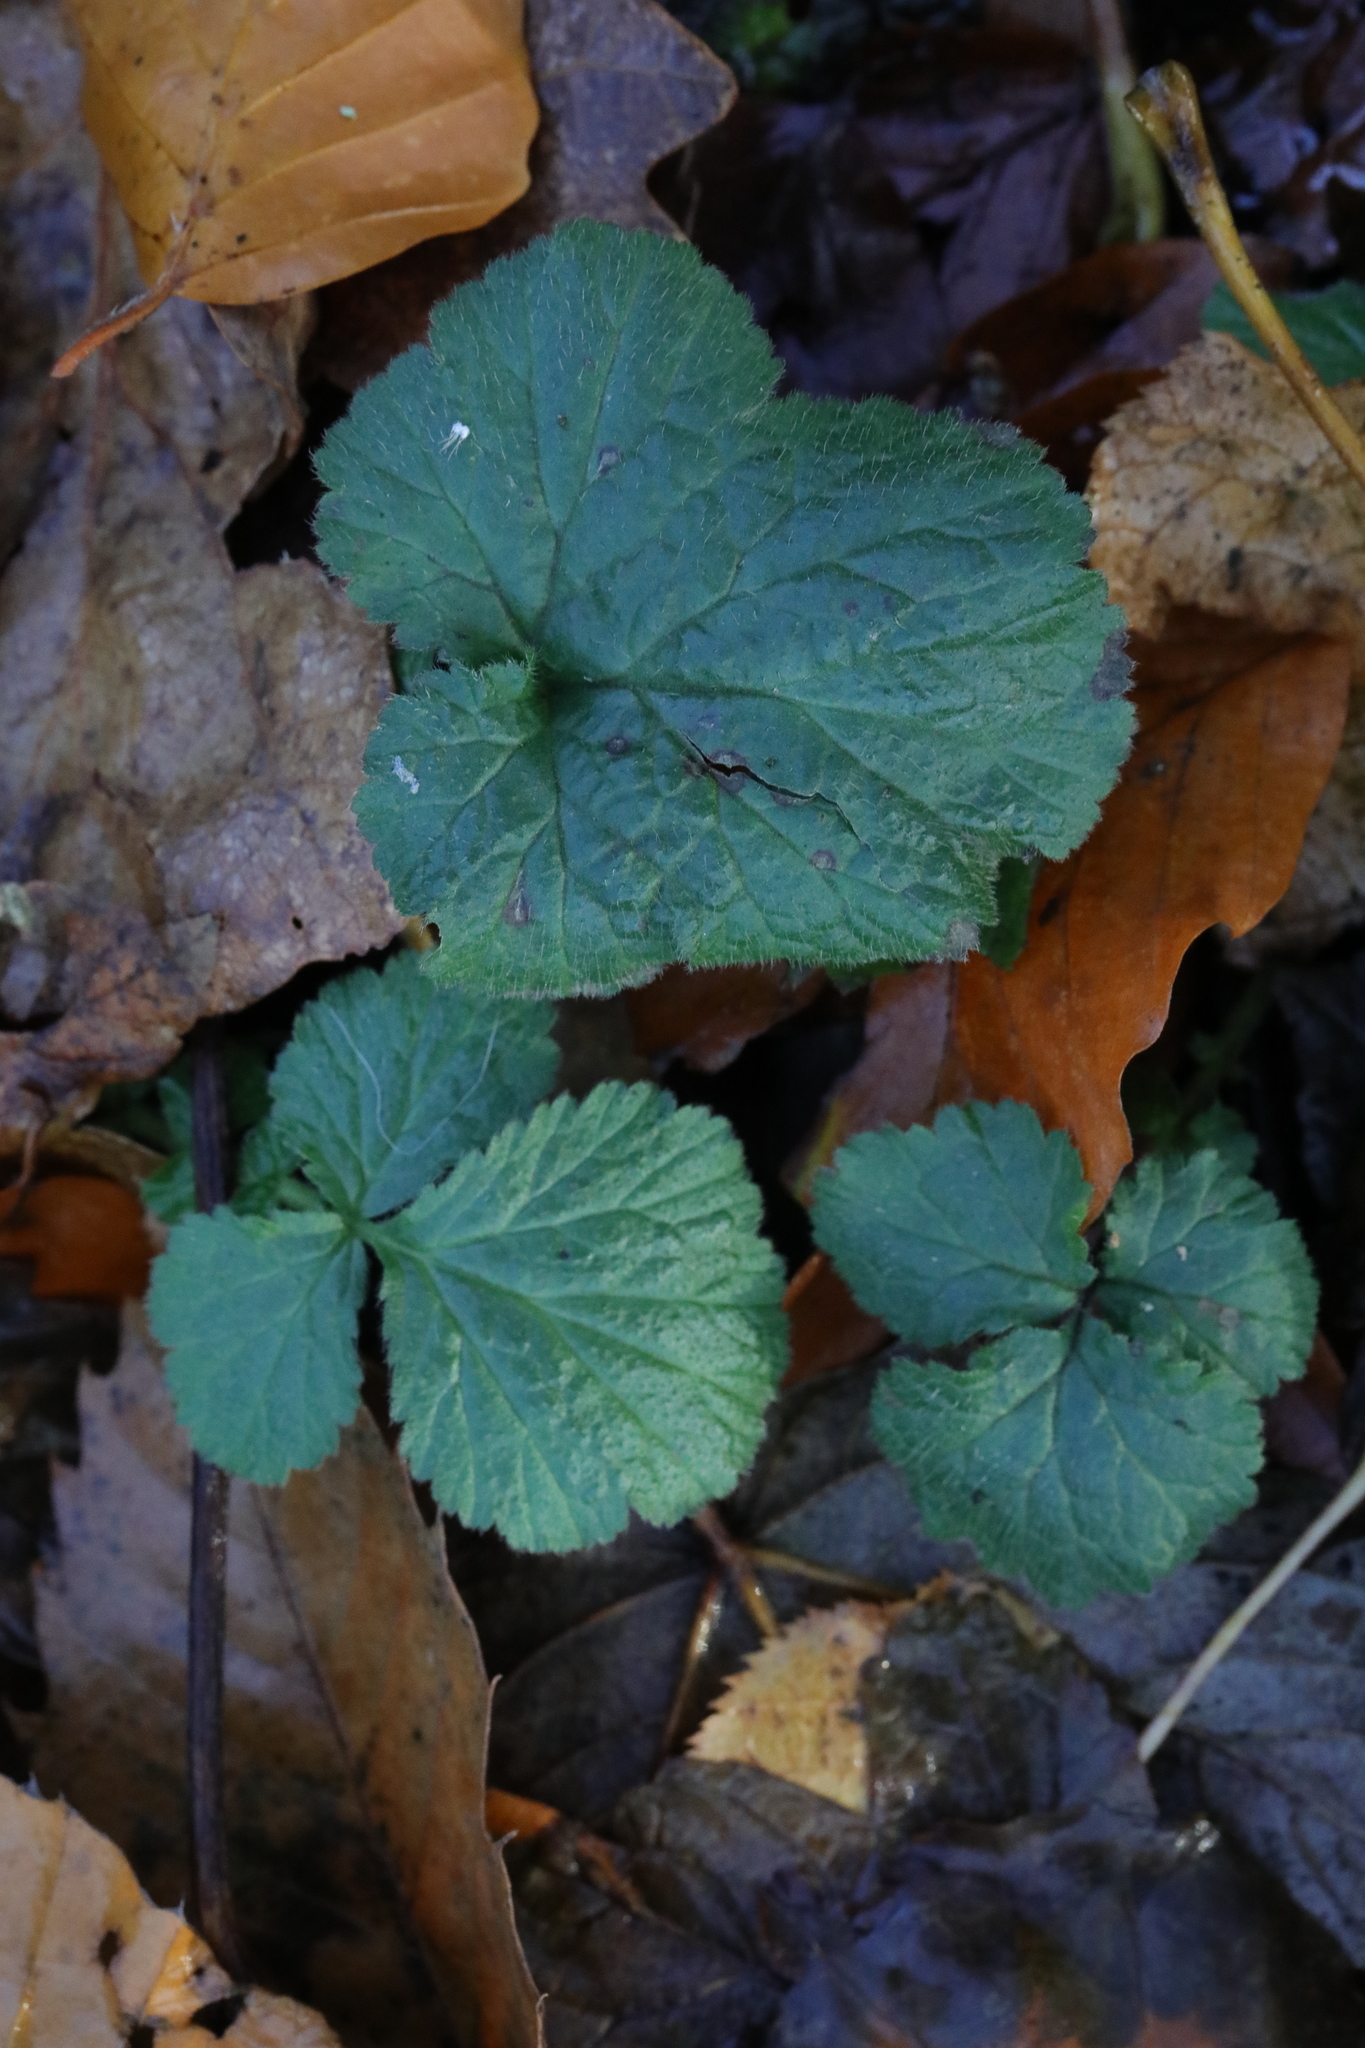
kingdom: Plantae
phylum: Tracheophyta
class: Magnoliopsida
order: Rosales
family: Rosaceae
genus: Geum
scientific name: Geum urbanum
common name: Wood avens
